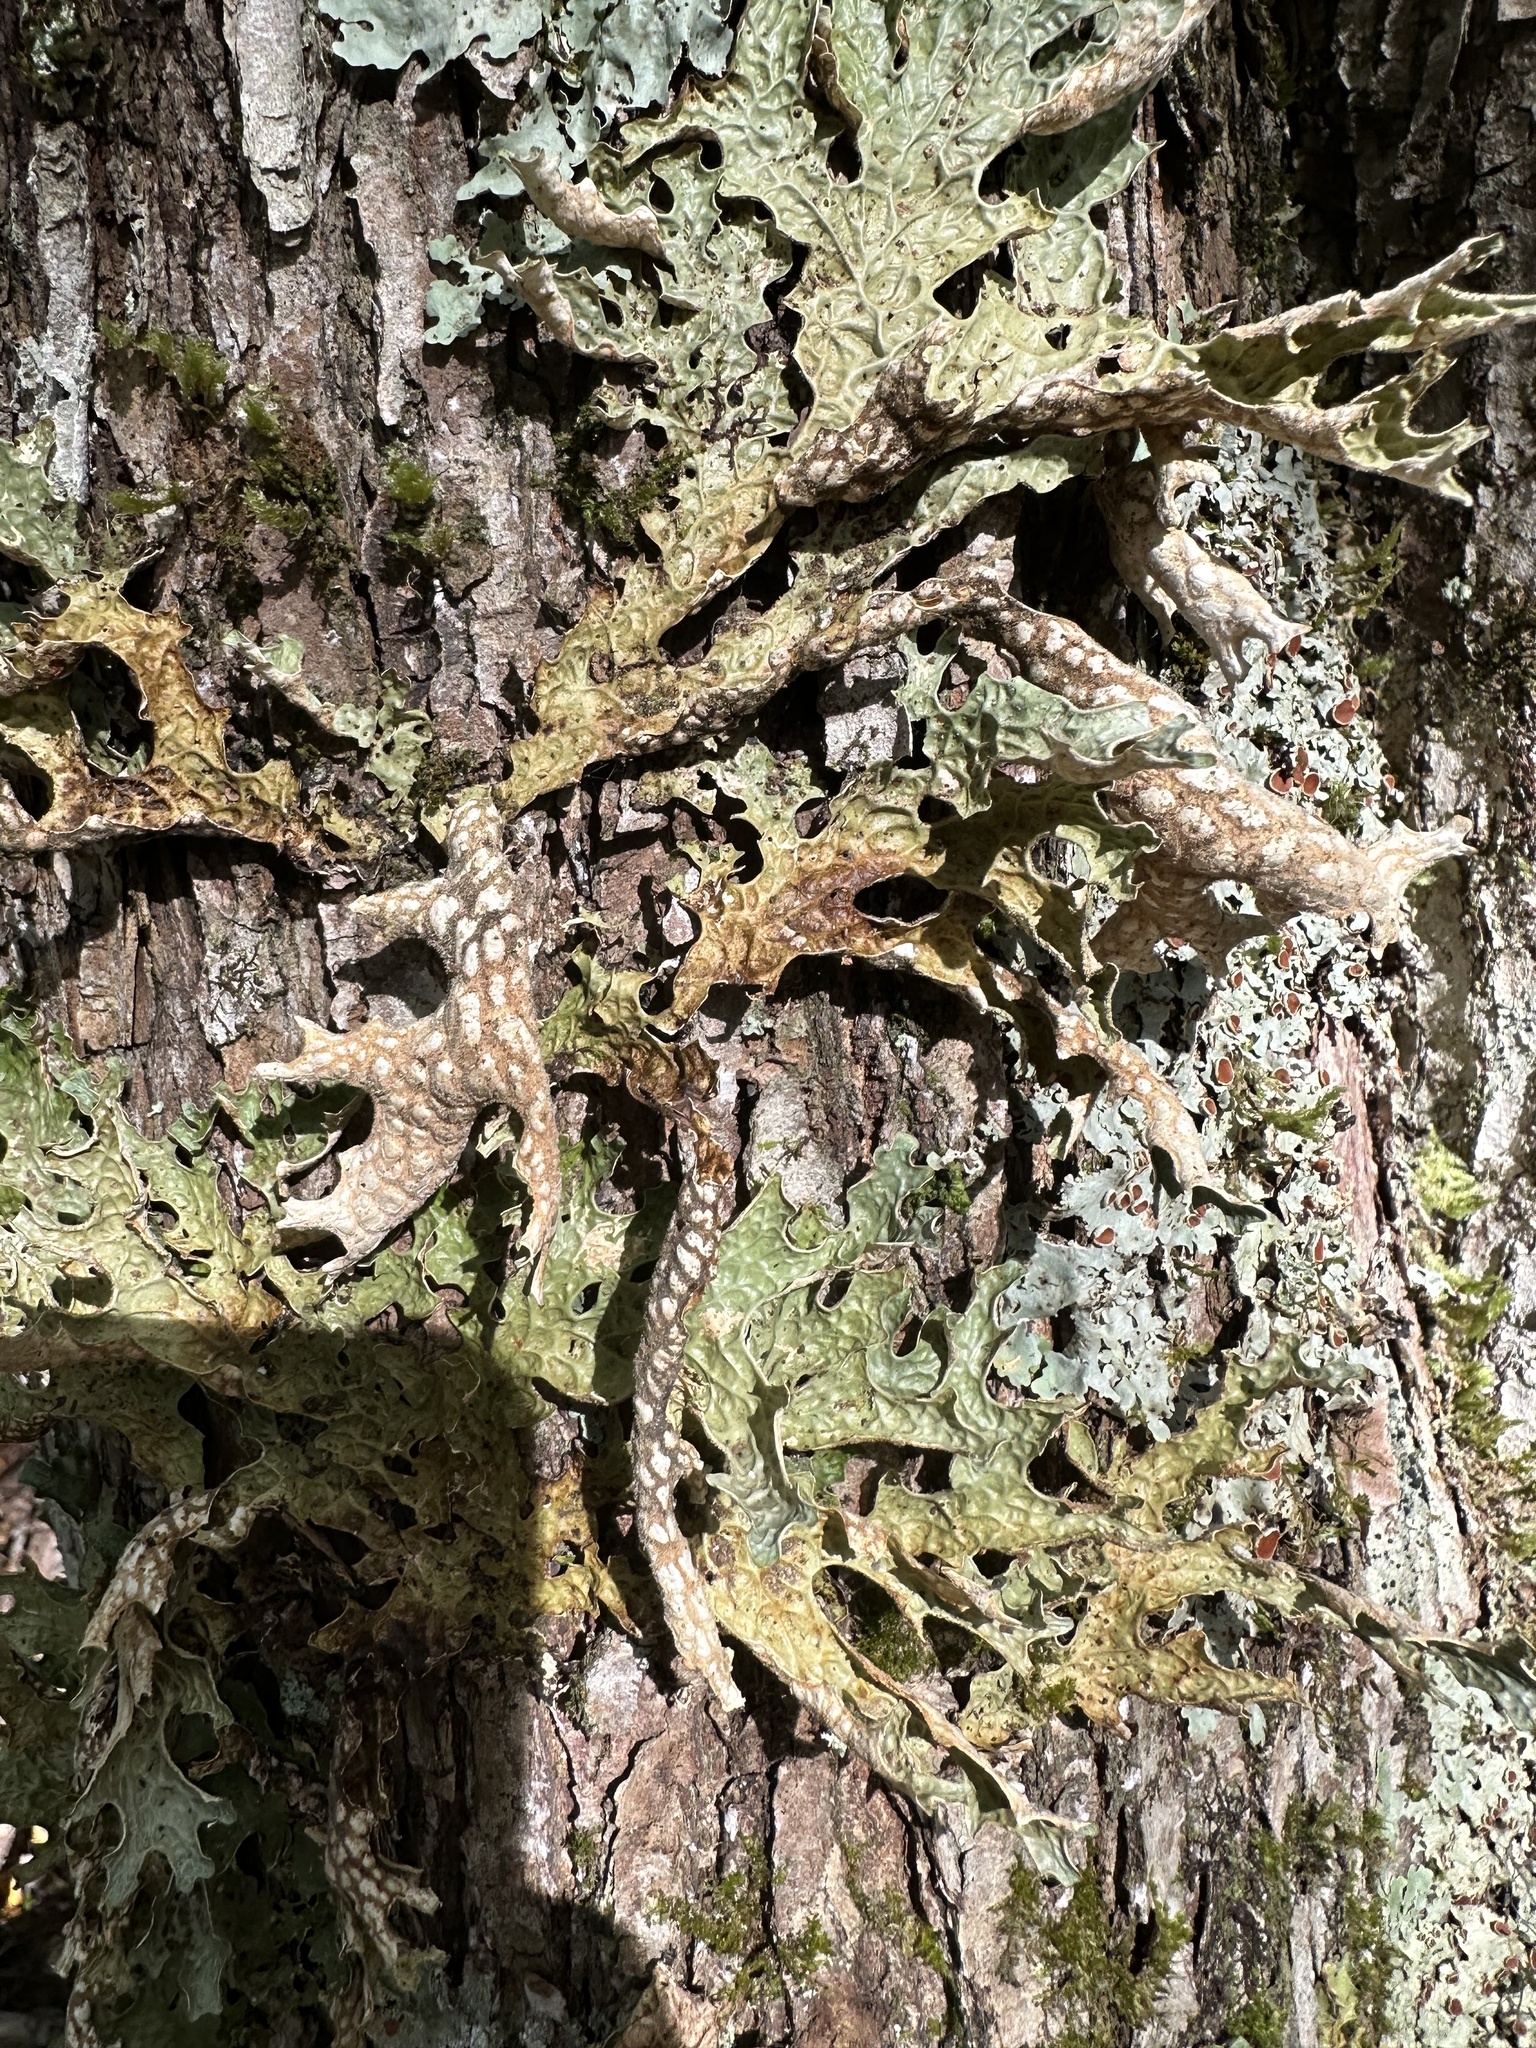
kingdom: Fungi
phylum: Ascomycota
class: Lecanoromycetes
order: Peltigerales
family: Lobariaceae
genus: Lobaria
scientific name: Lobaria pulmonaria
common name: Lungwort
